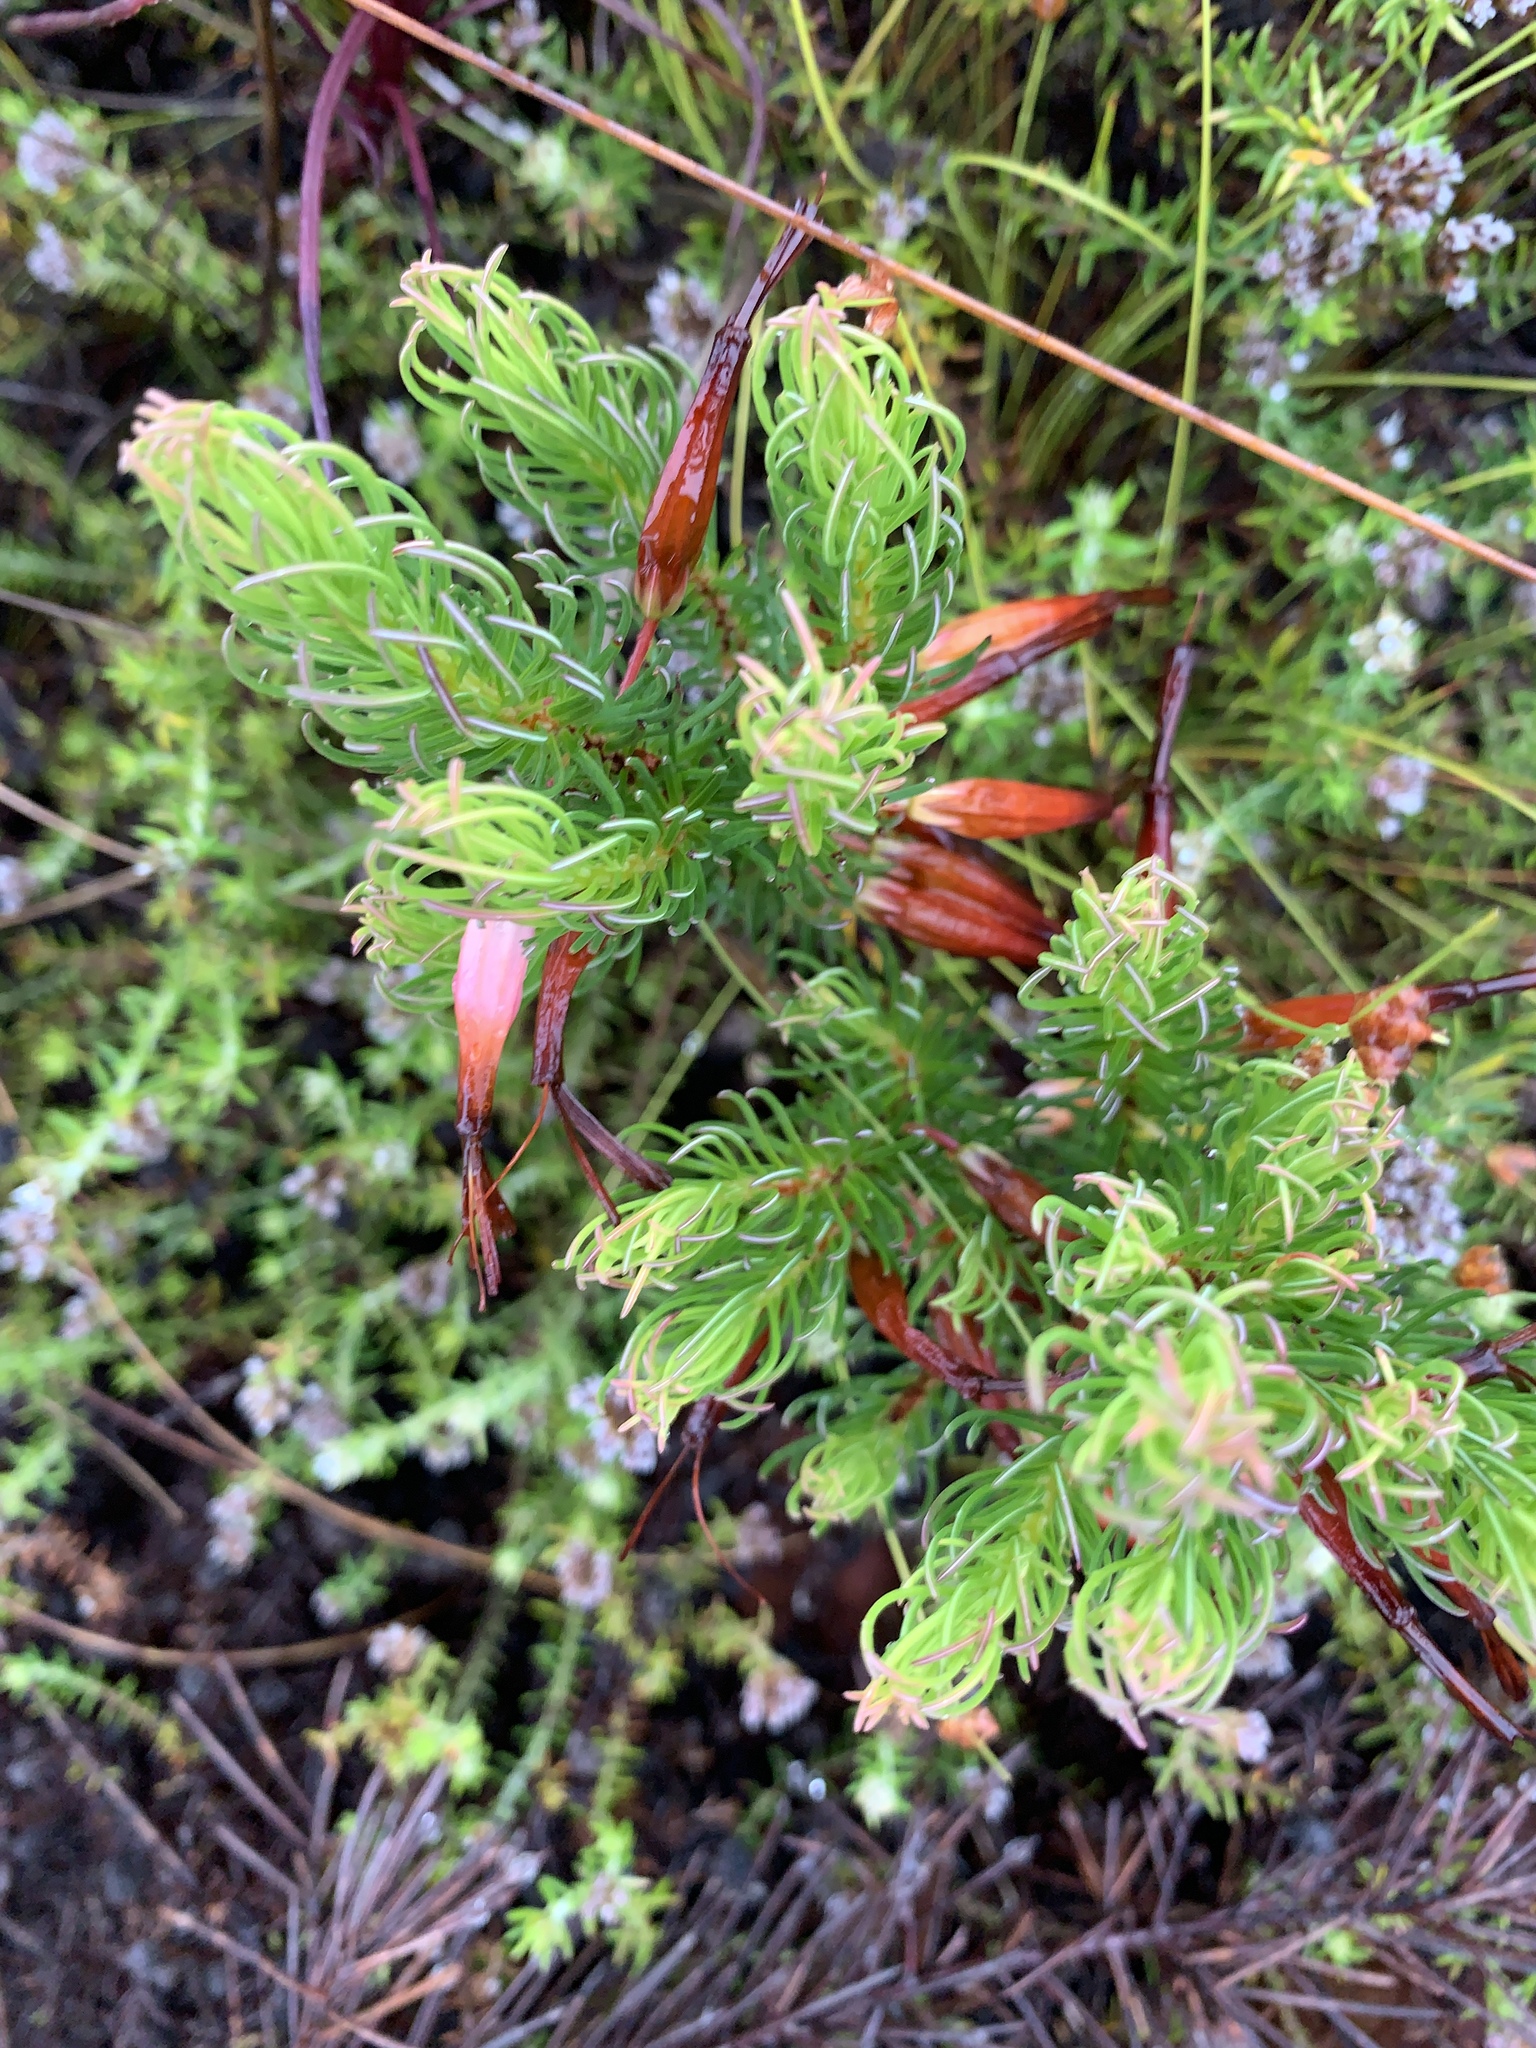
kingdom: Plantae
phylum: Tracheophyta
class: Magnoliopsida
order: Ericales
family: Ericaceae
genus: Erica
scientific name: Erica plukenetii
